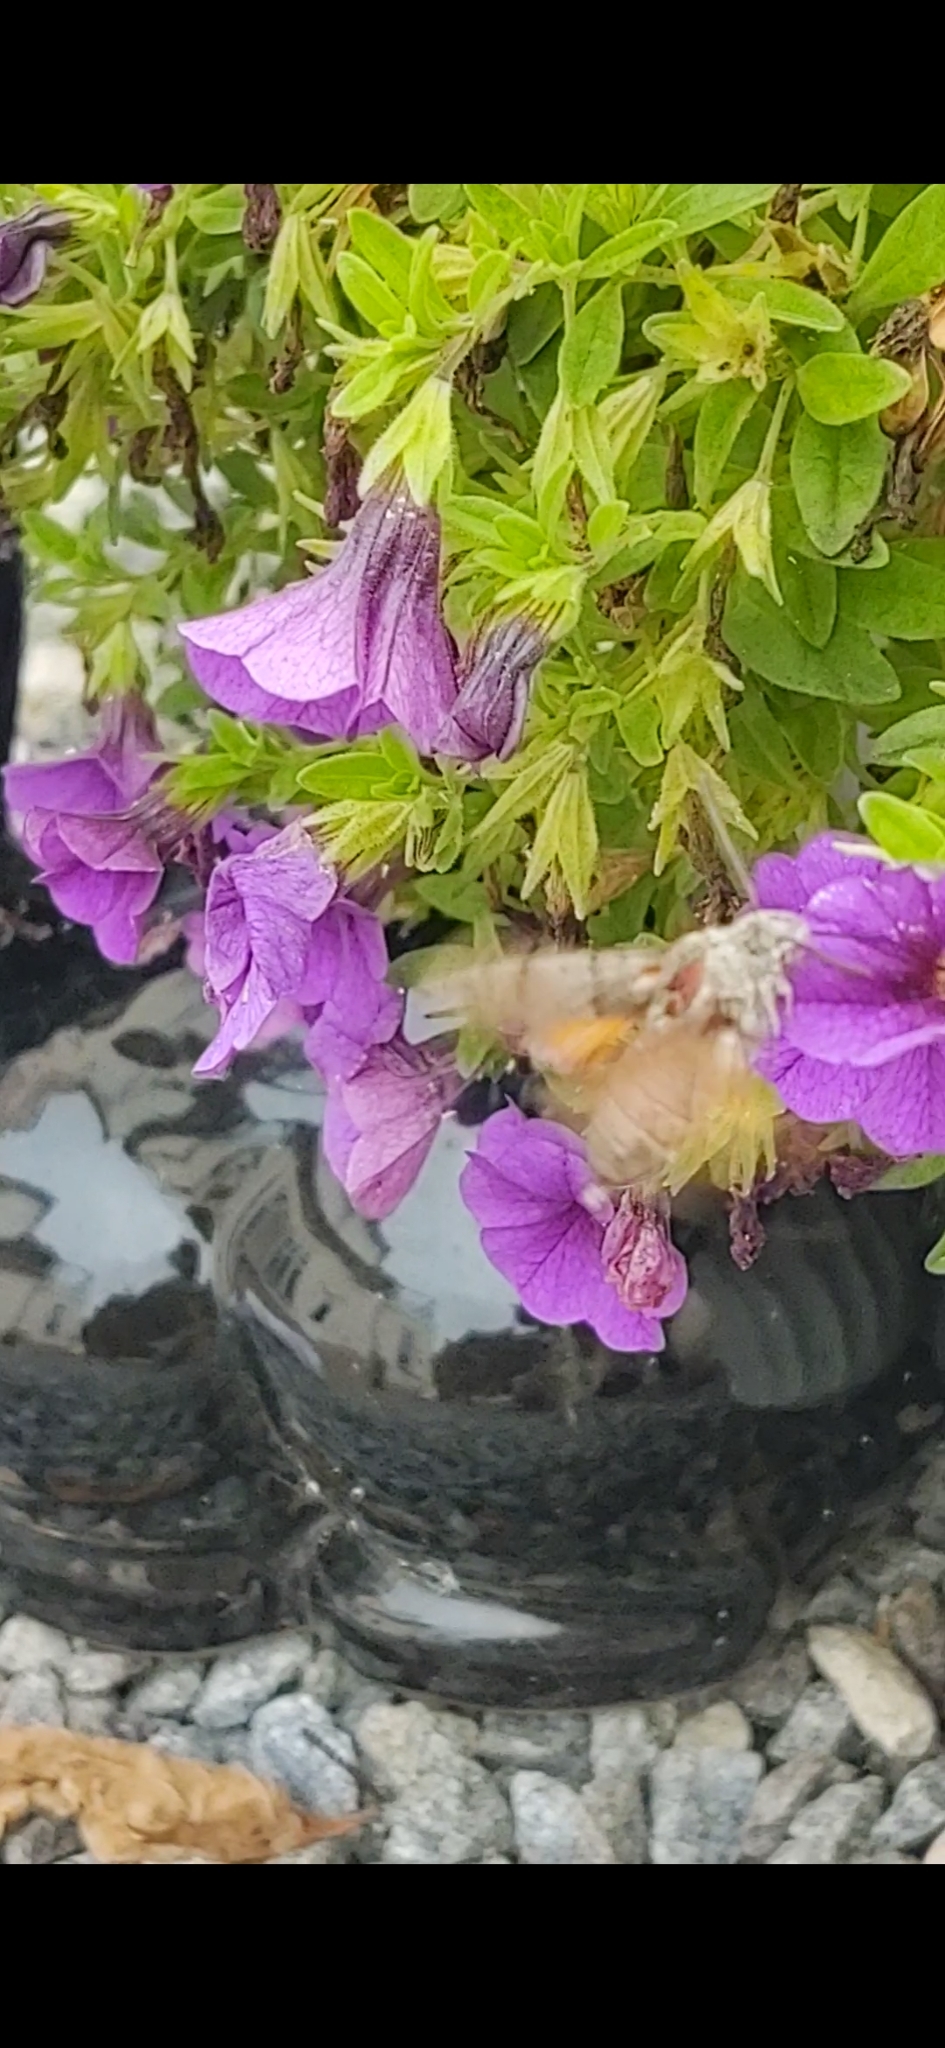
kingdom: Animalia
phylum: Arthropoda
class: Insecta
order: Lepidoptera
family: Sphingidae
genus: Macroglossum
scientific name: Macroglossum stellatarum
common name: Humming-bird hawk-moth
